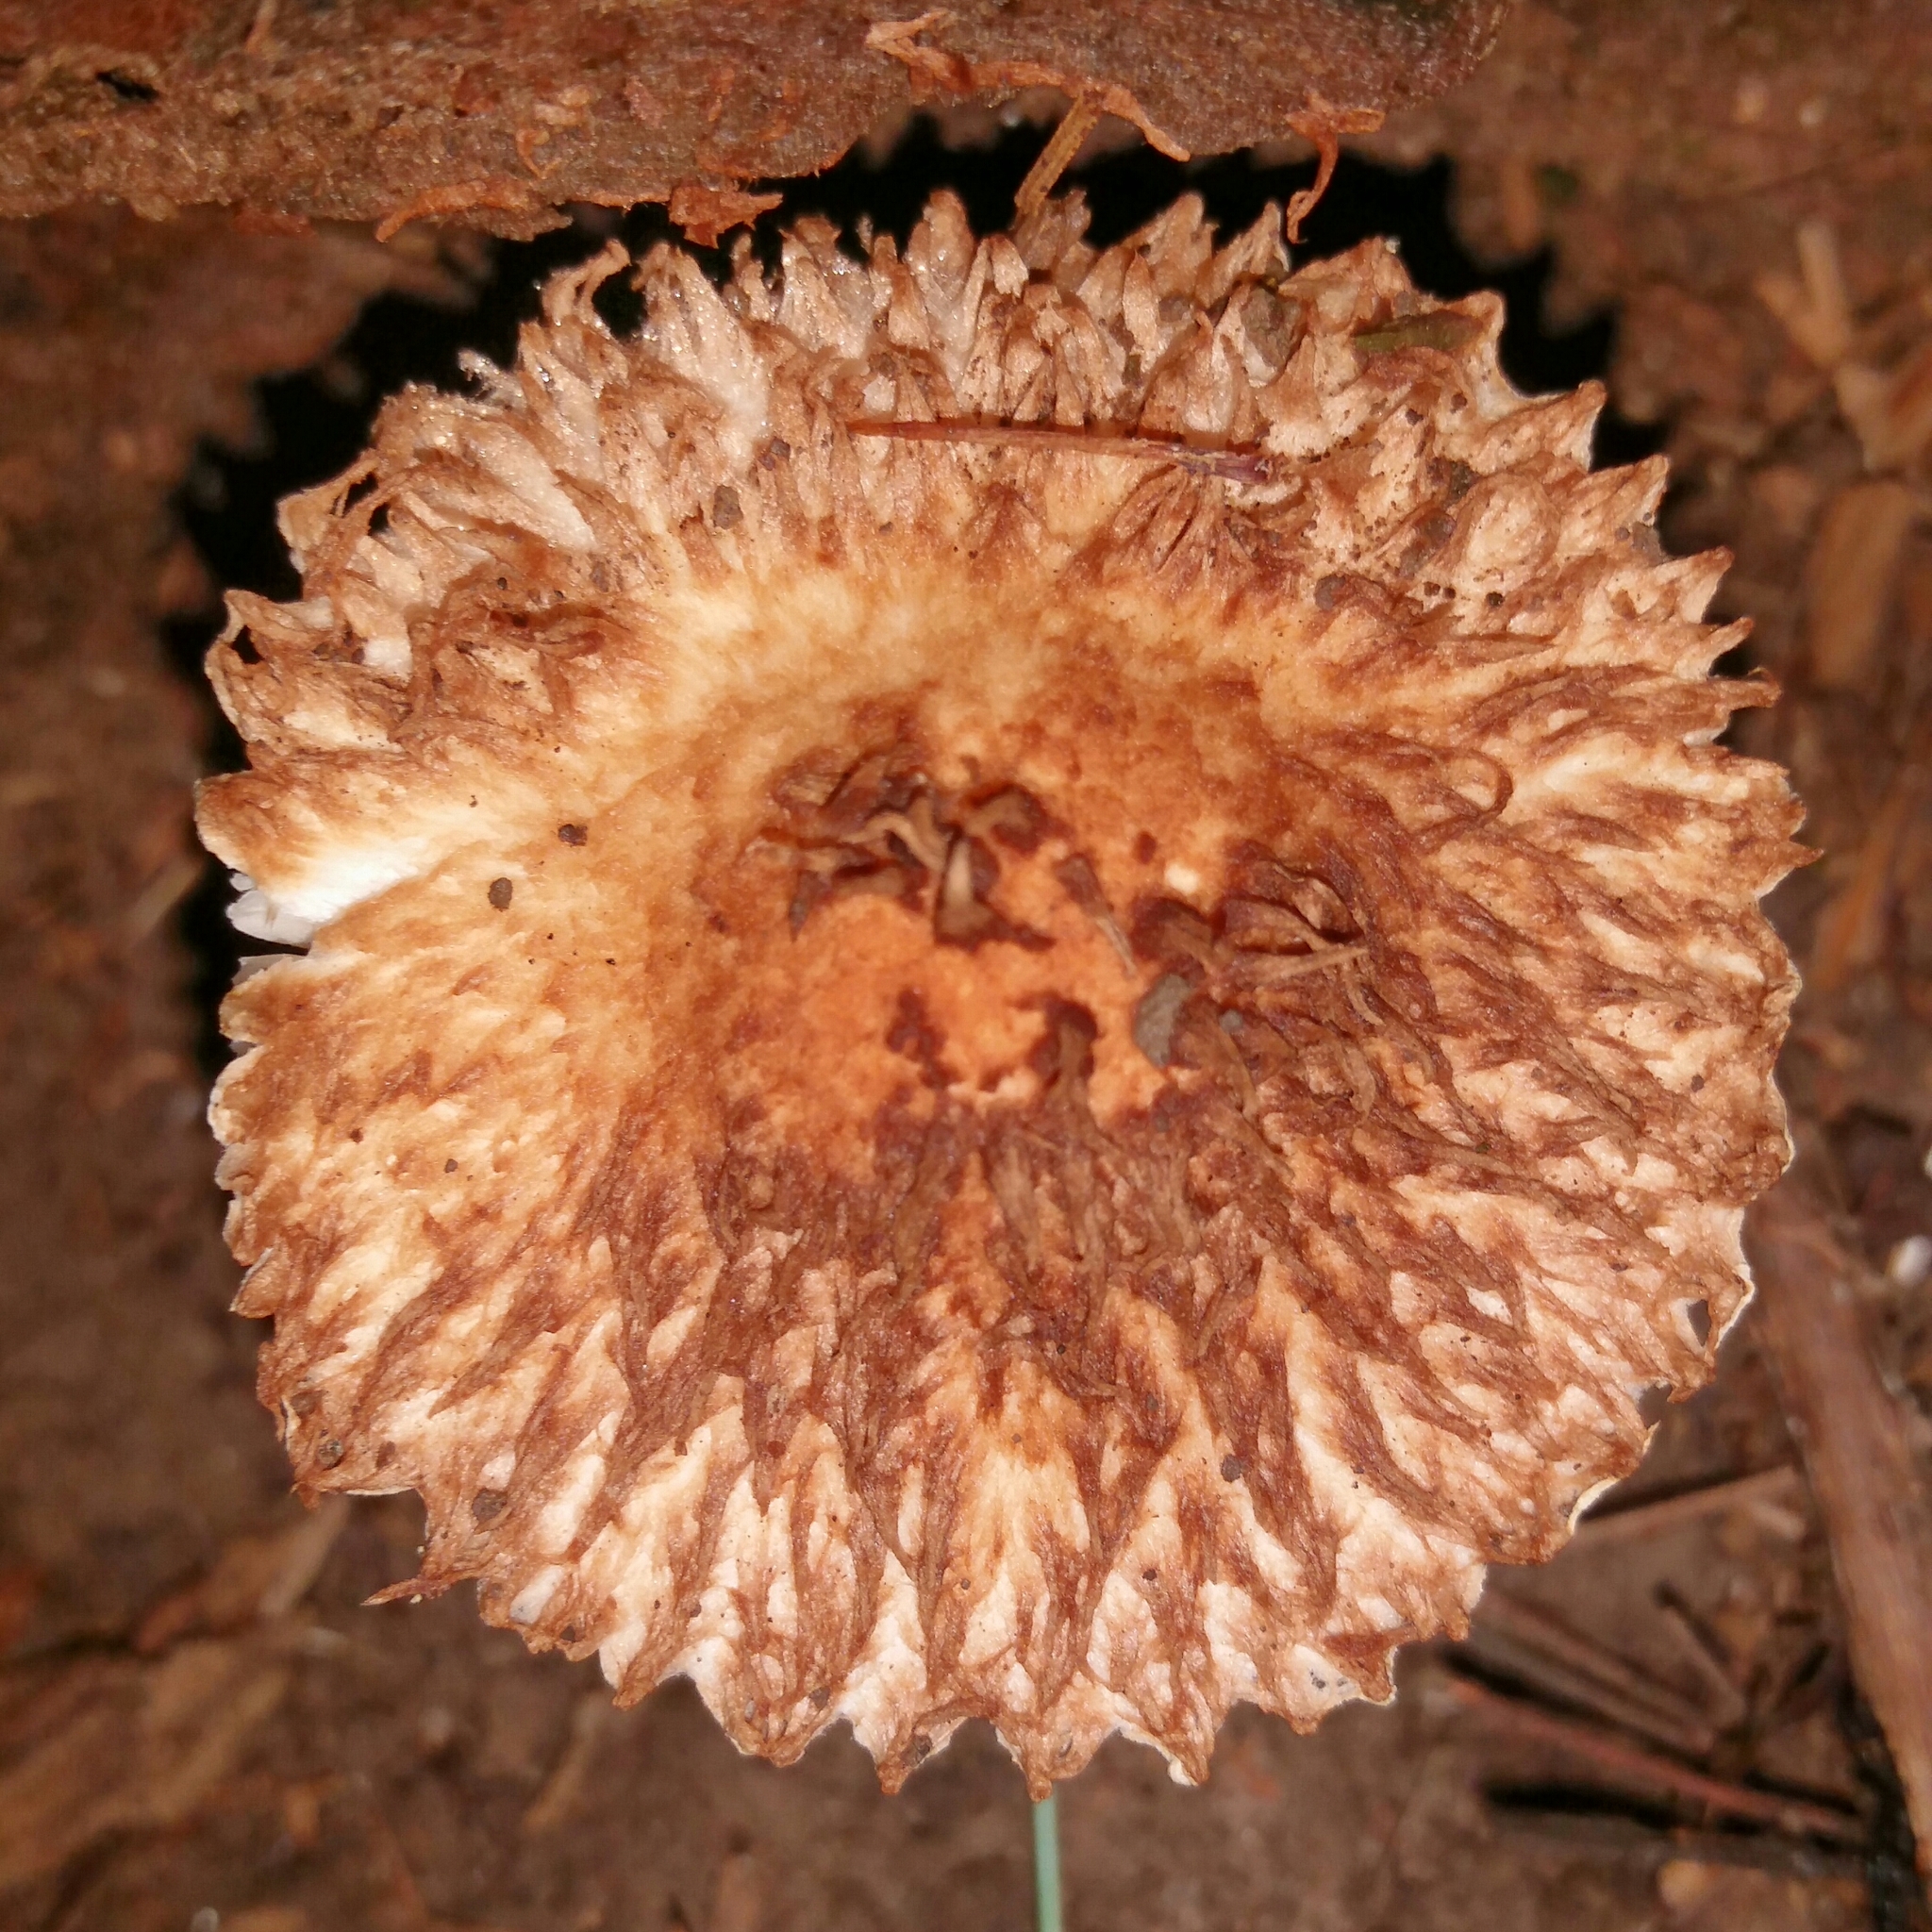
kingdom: Fungi
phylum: Basidiomycota
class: Agaricomycetes
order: Agaricales
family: Agaricaceae
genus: Leucopholiota
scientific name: Leucopholiota decorosa
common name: Decorated pholiota
